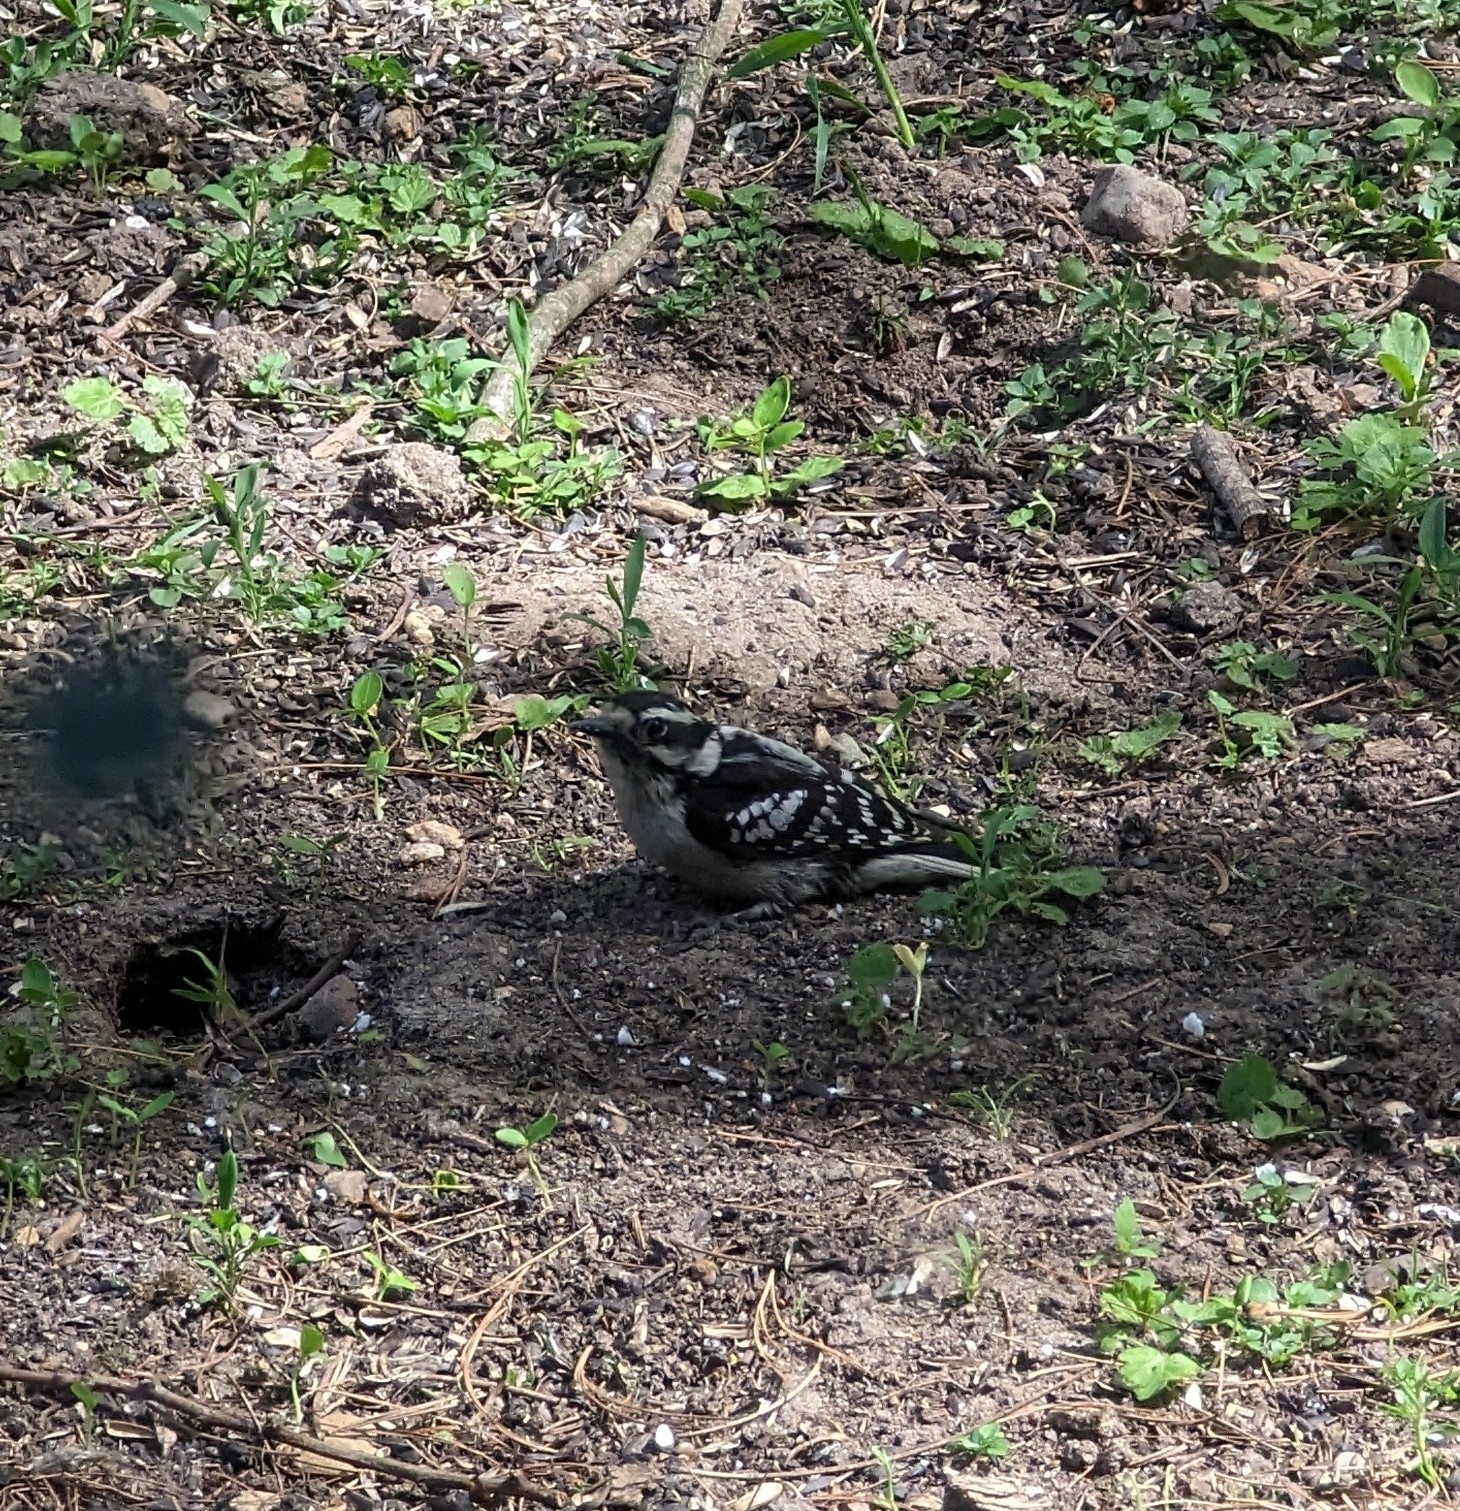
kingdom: Animalia
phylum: Chordata
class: Aves
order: Piciformes
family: Picidae
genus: Dryobates
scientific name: Dryobates pubescens
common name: Downy woodpecker
